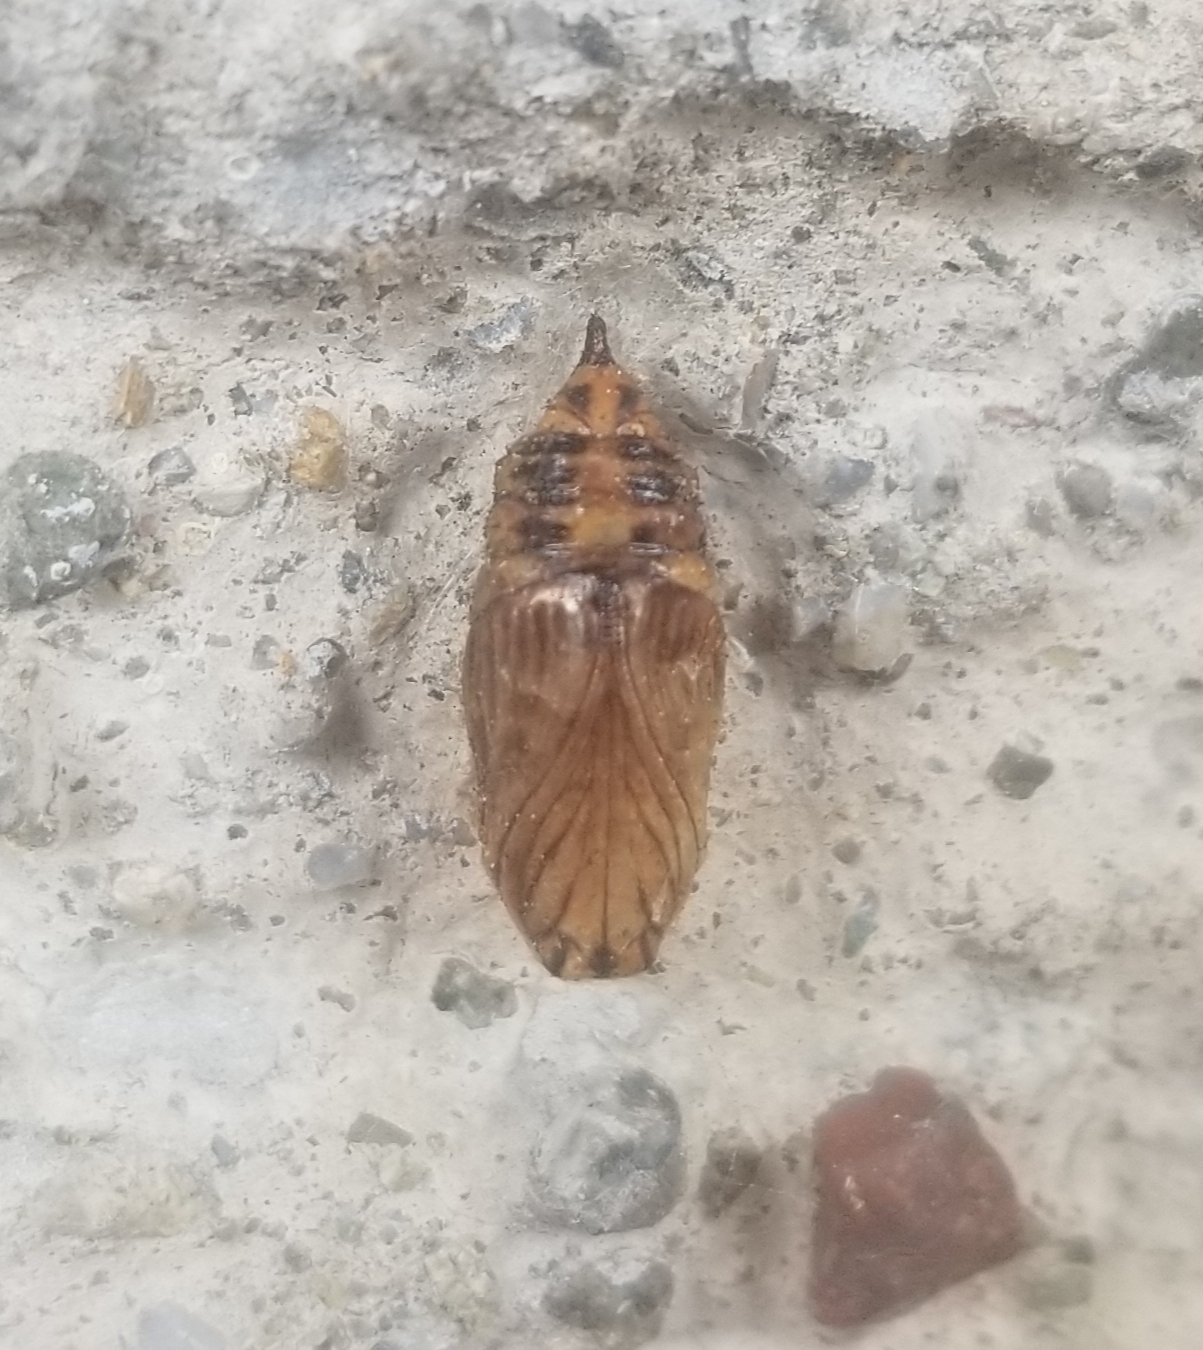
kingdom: Animalia
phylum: Arthropoda
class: Insecta
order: Lepidoptera
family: Notodontidae
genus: Phryganidia
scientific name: Phryganidia californica
